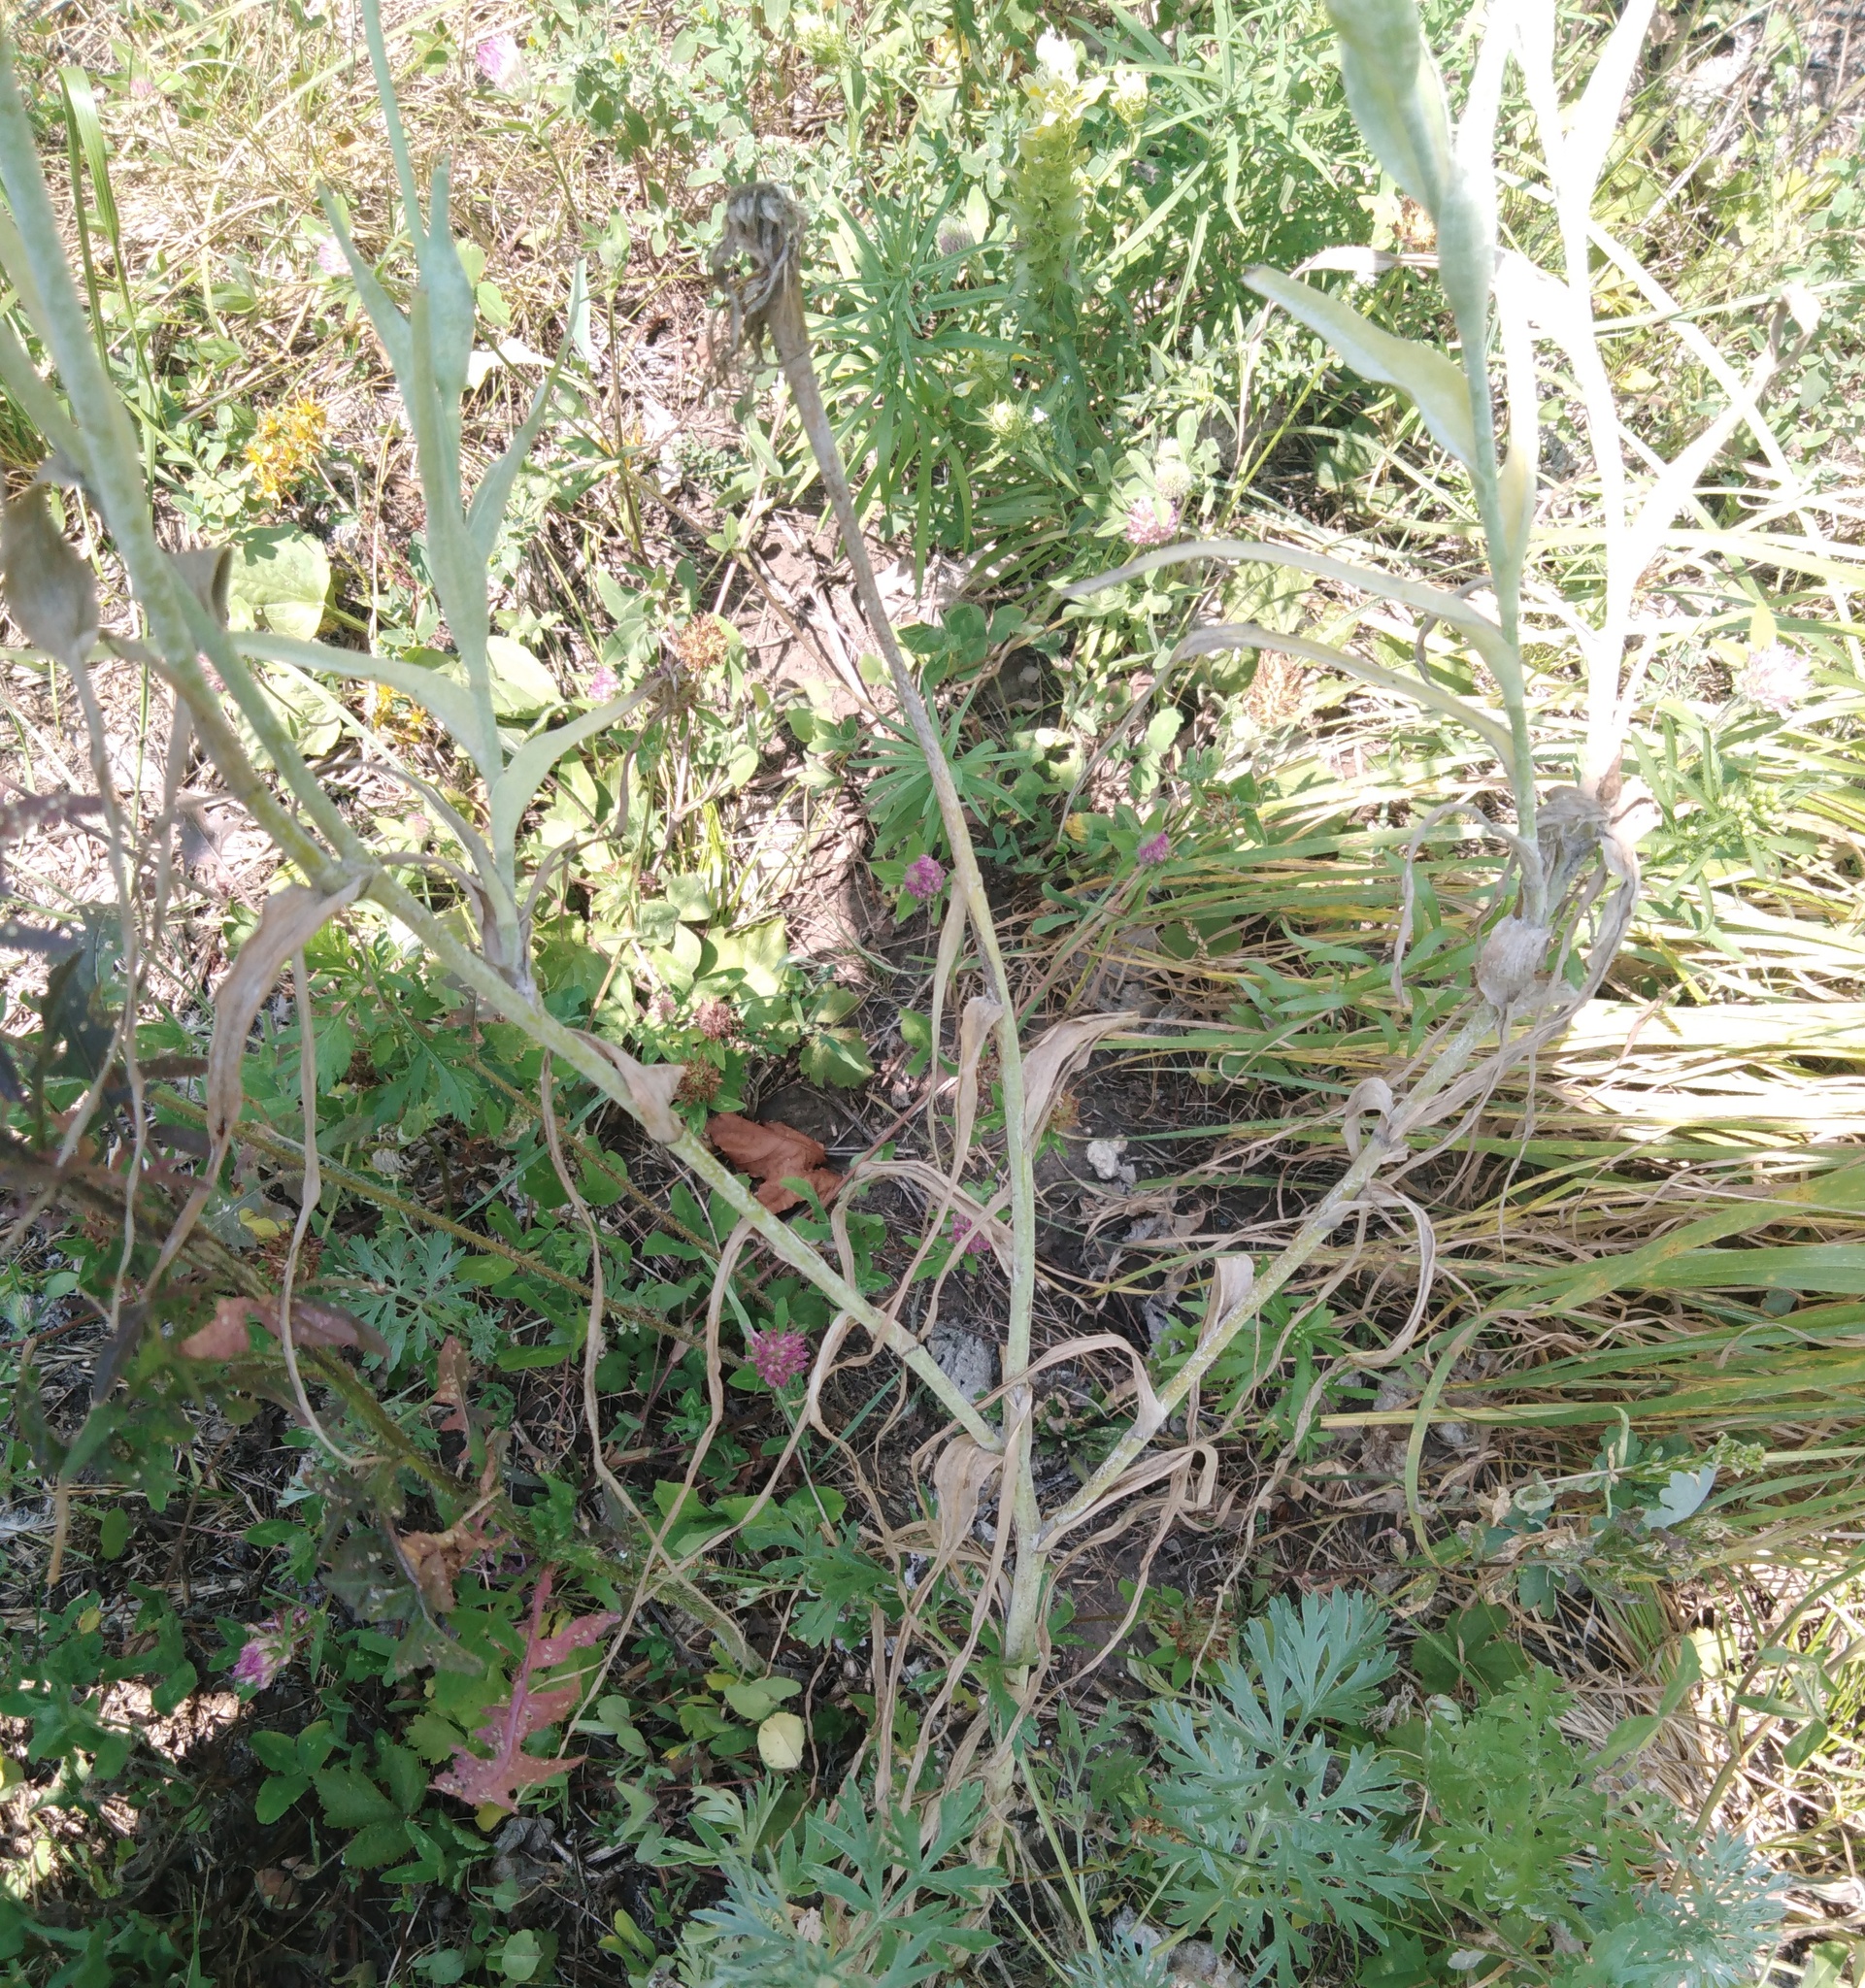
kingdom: Plantae
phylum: Tracheophyta
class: Magnoliopsida
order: Asterales
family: Asteraceae
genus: Tragopogon
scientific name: Tragopogon dubius
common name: Yellow salsify
